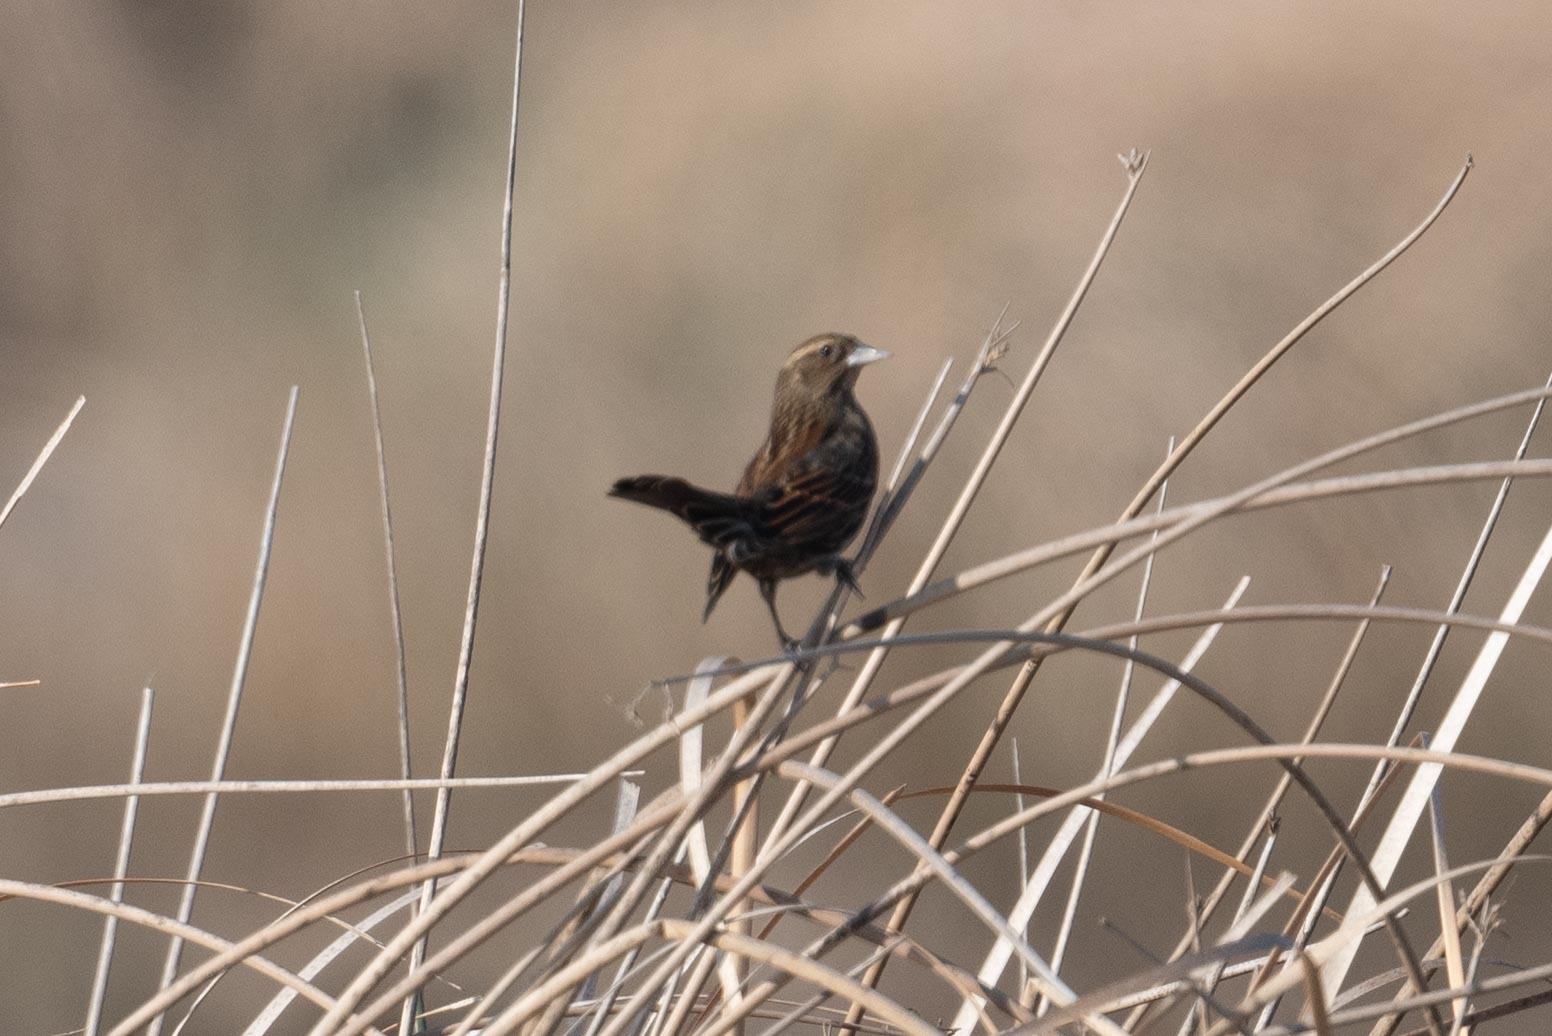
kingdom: Animalia
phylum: Chordata
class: Aves
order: Passeriformes
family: Icteridae
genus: Agelaius
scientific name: Agelaius phoeniceus
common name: Red-winged blackbird
